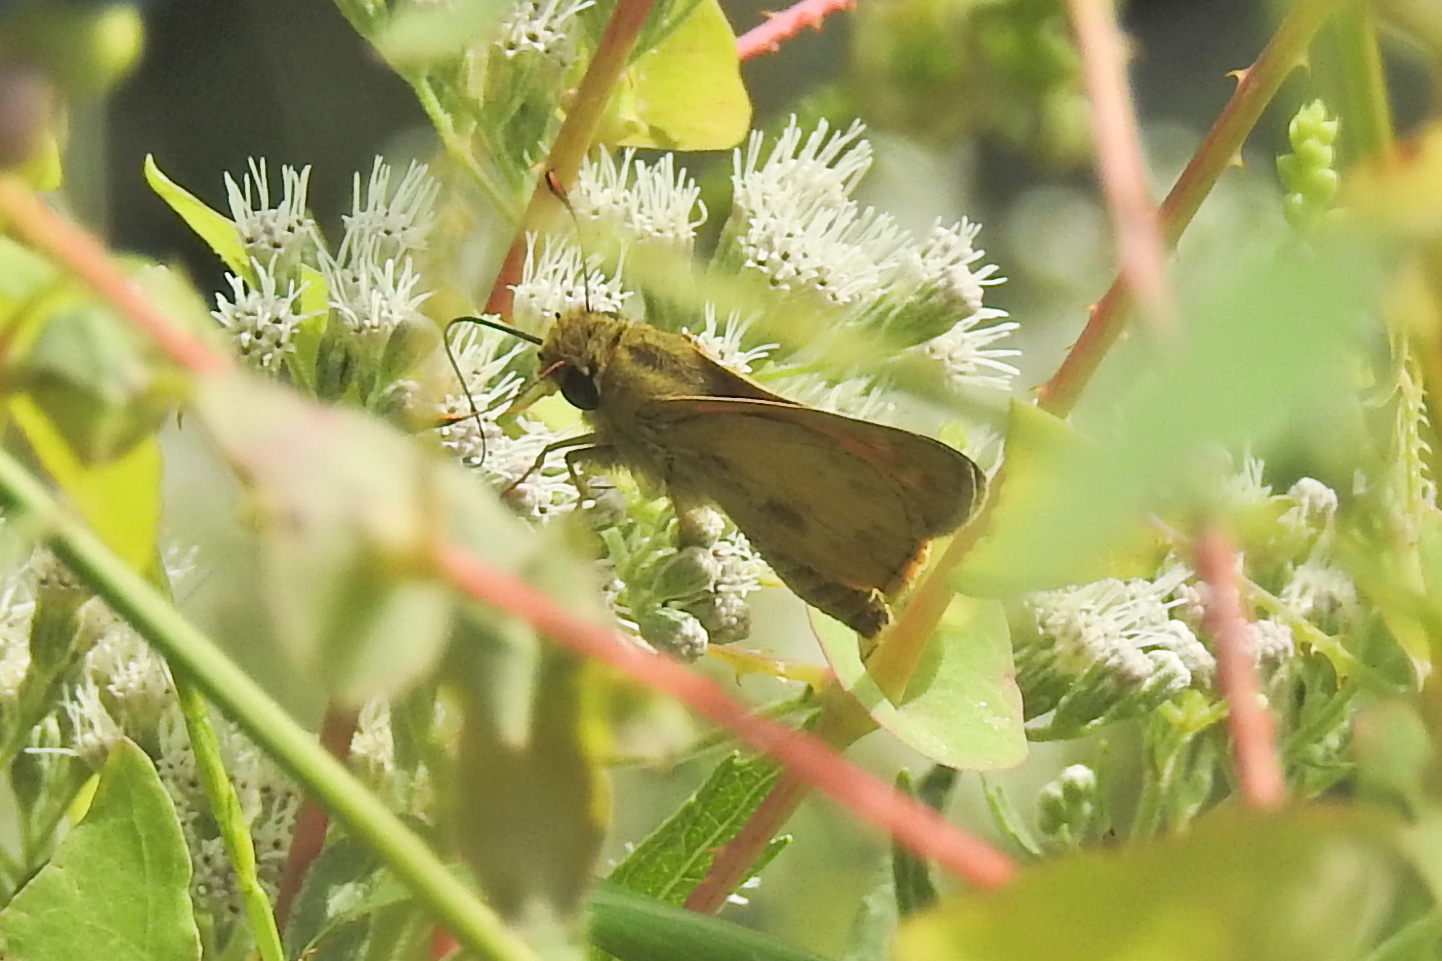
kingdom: Animalia
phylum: Arthropoda
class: Insecta
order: Lepidoptera
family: Hesperiidae
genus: Atalopedes
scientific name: Atalopedes
